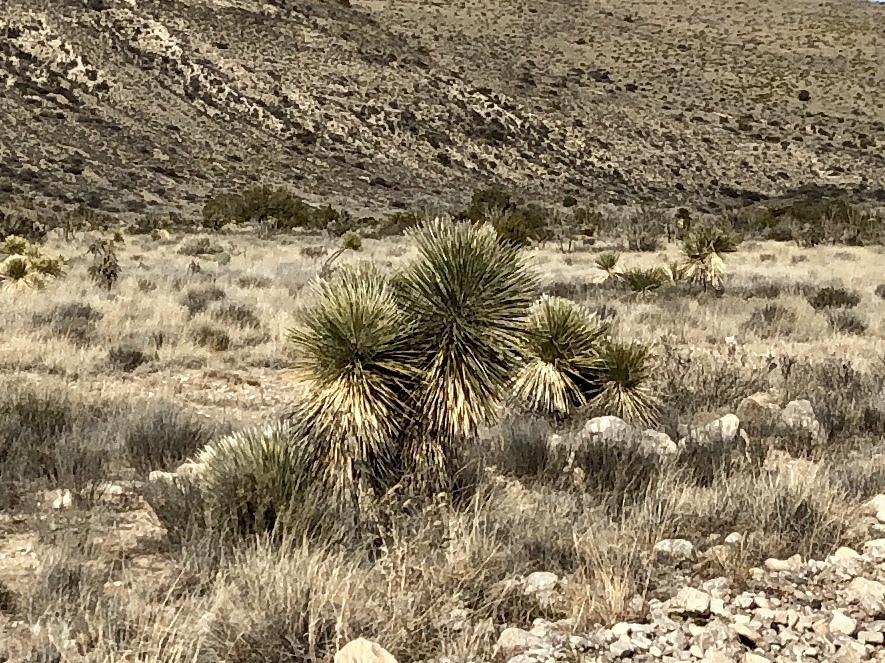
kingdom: Plantae
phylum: Tracheophyta
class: Liliopsida
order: Asparagales
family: Asparagaceae
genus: Yucca
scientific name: Yucca elata
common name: Palmella
